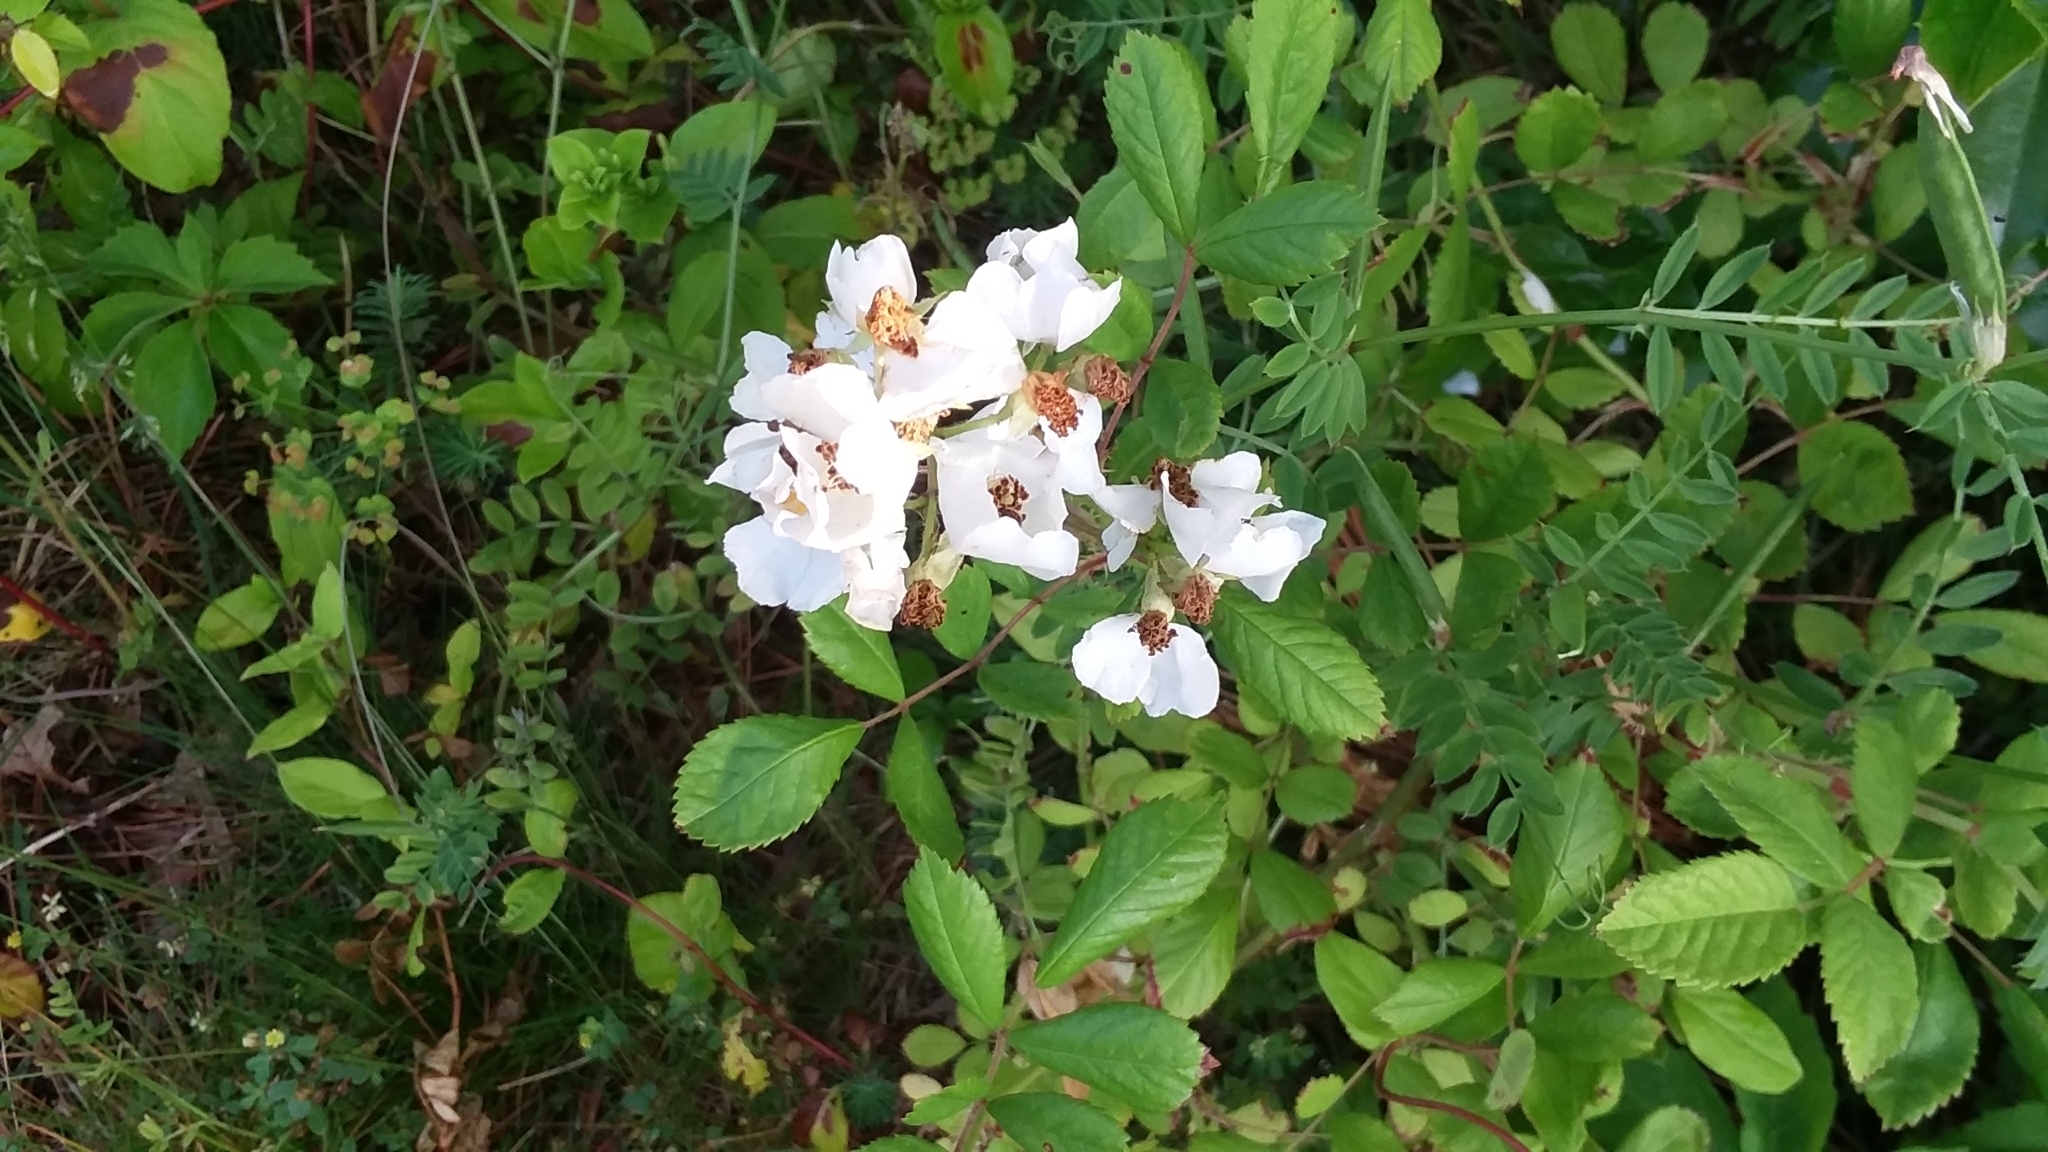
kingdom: Plantae
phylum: Tracheophyta
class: Magnoliopsida
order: Rosales
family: Rosaceae
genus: Rosa
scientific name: Rosa multiflora
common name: Multiflora rose
